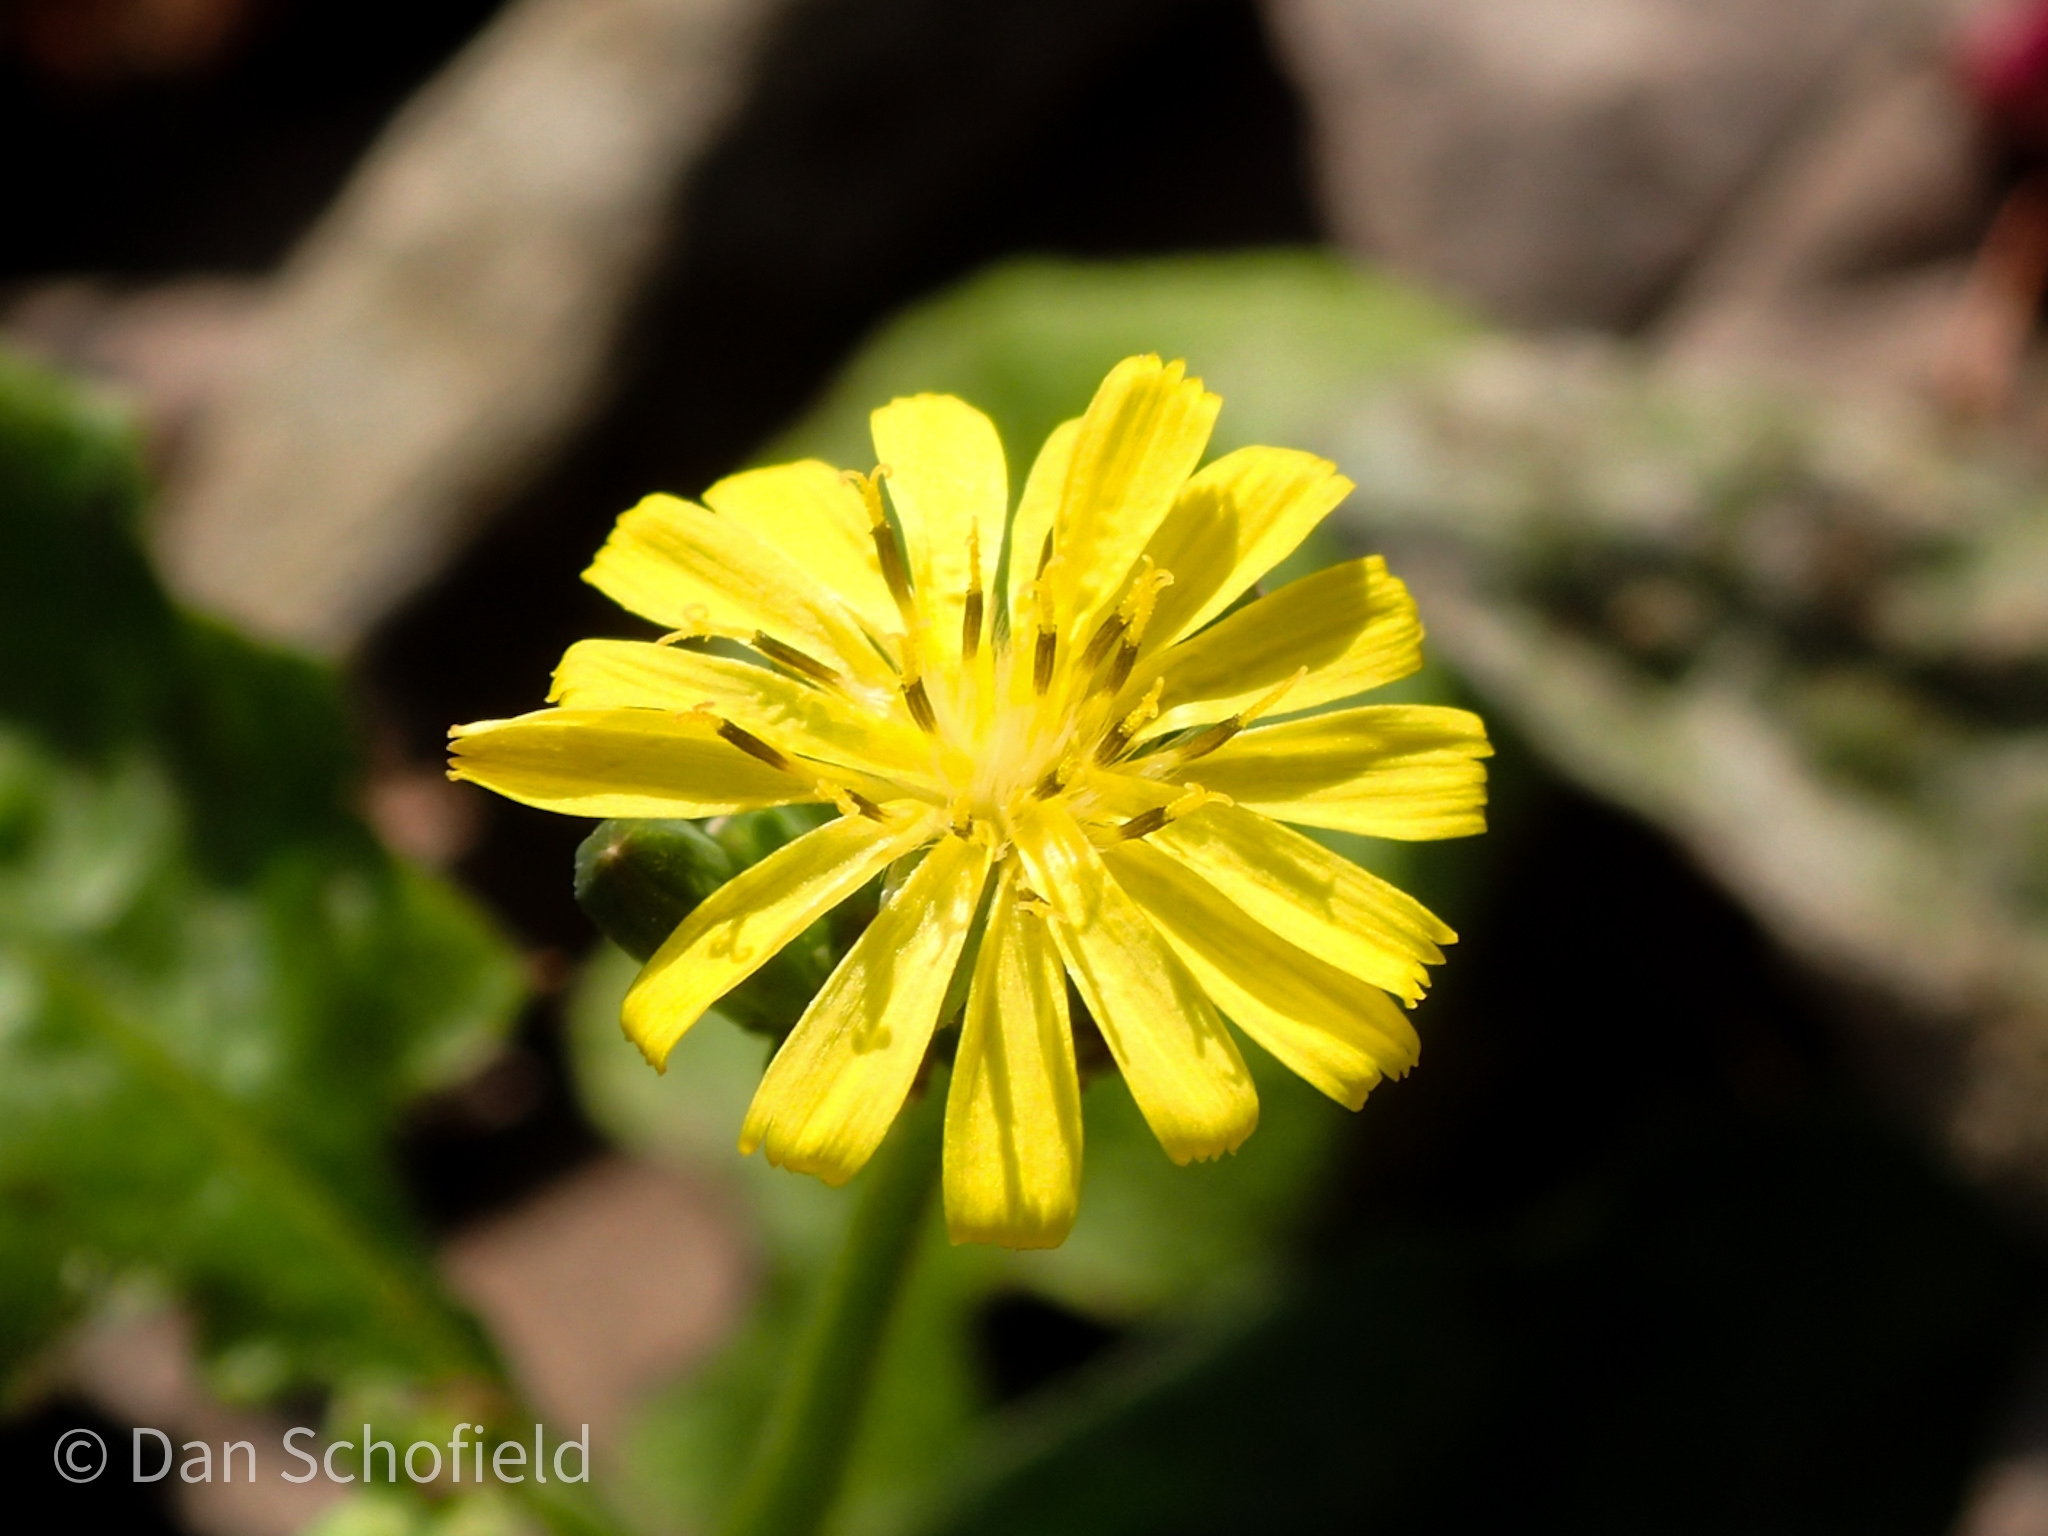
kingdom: Plantae
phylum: Tracheophyta
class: Magnoliopsida
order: Asterales
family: Asteraceae
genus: Youngia
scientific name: Youngia japonica
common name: Oriental false hawksbeard
